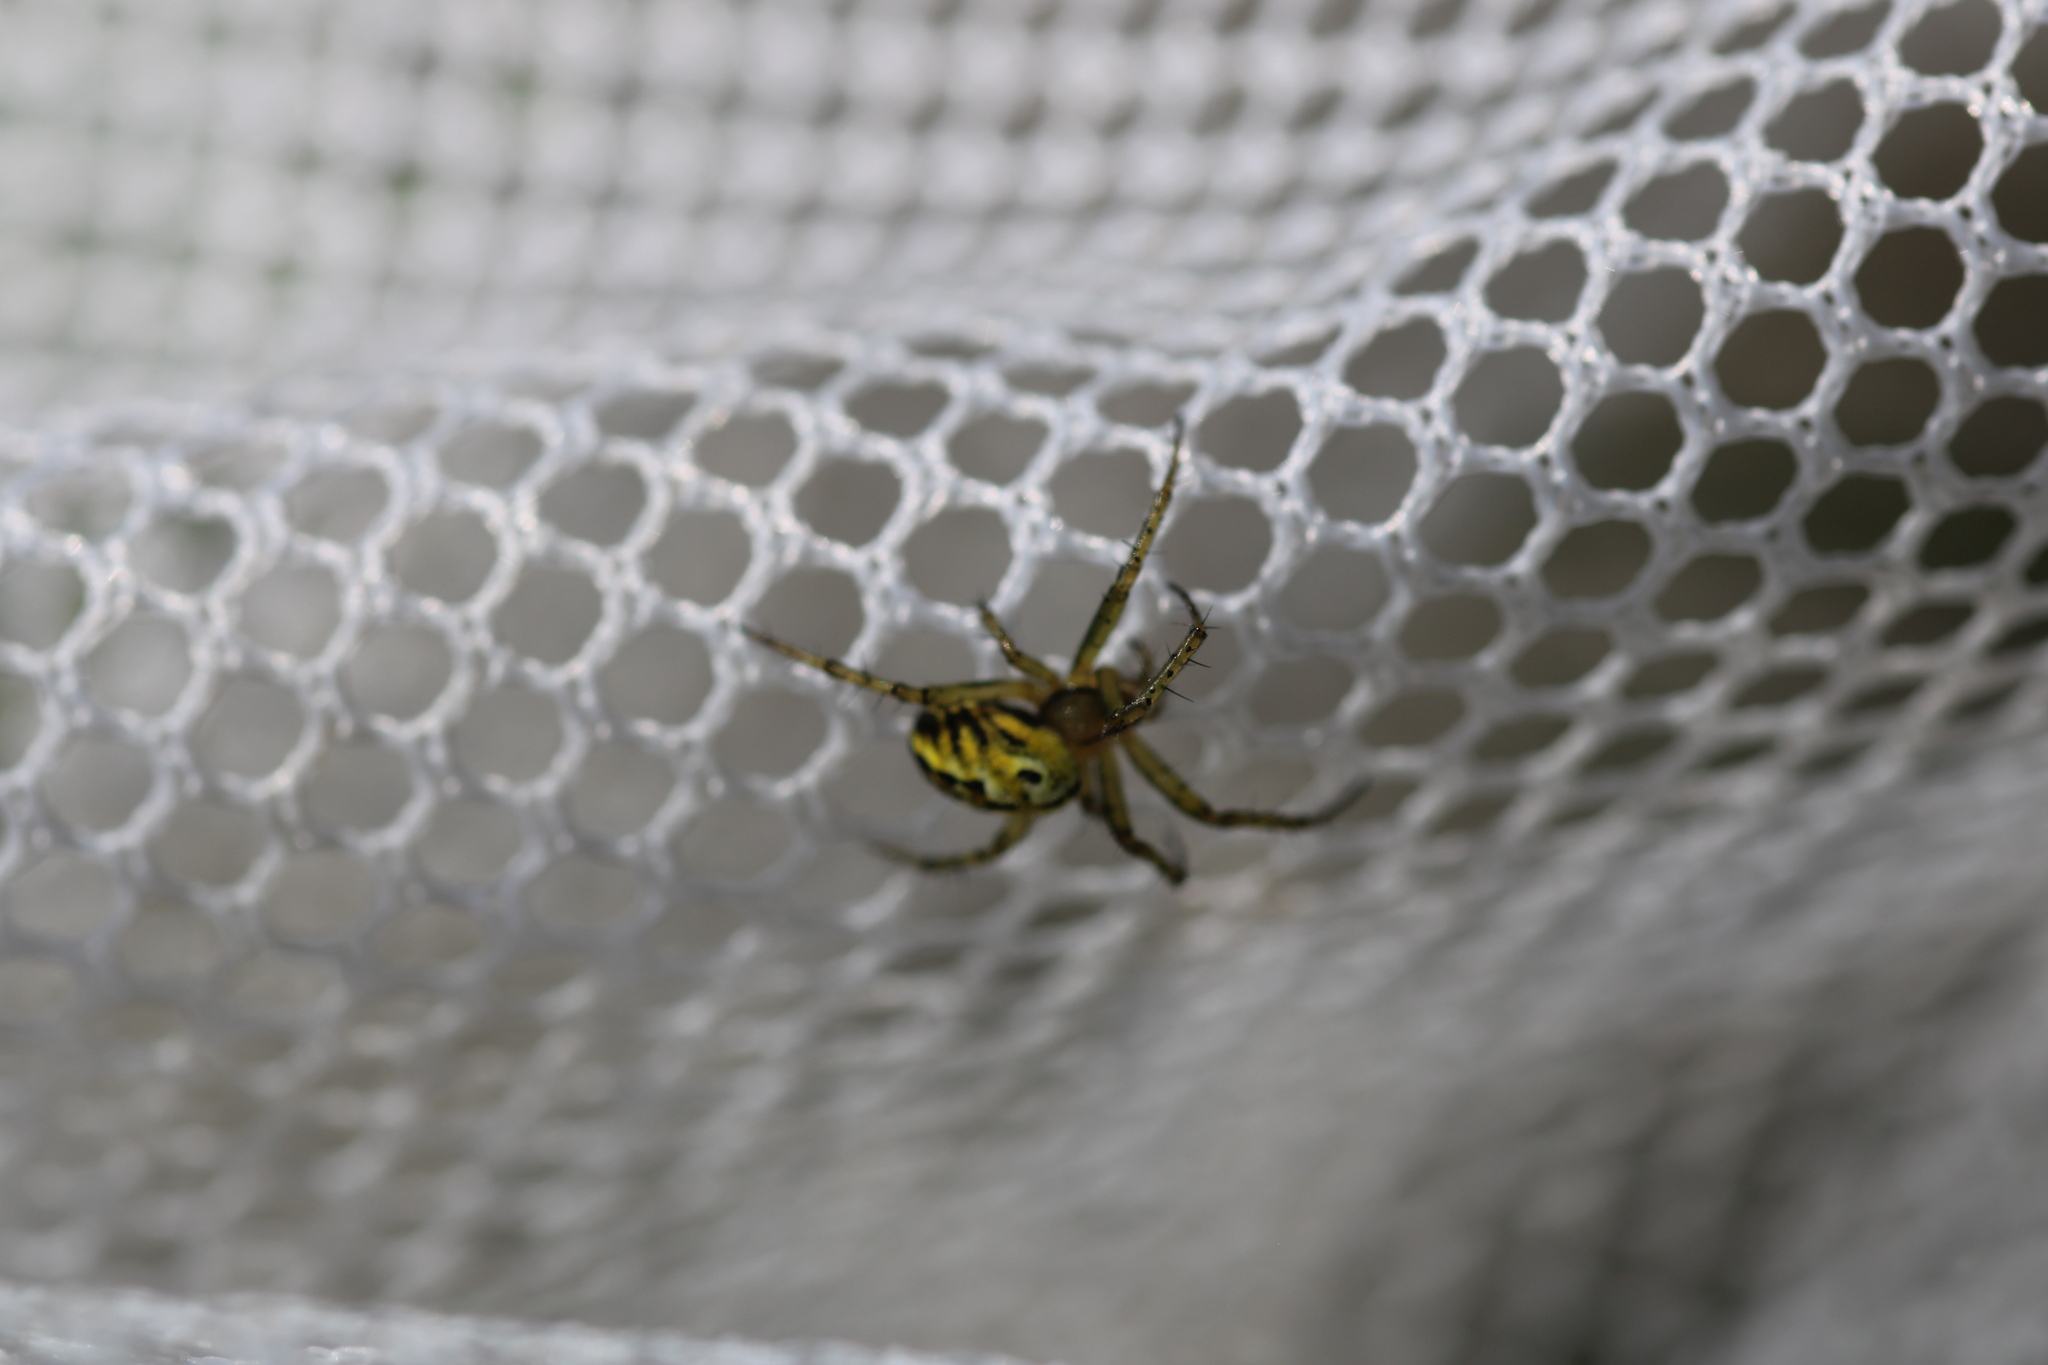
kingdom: Animalia
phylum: Arthropoda
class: Arachnida
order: Araneae
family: Araneidae
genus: Mangora
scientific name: Mangora acalypha
